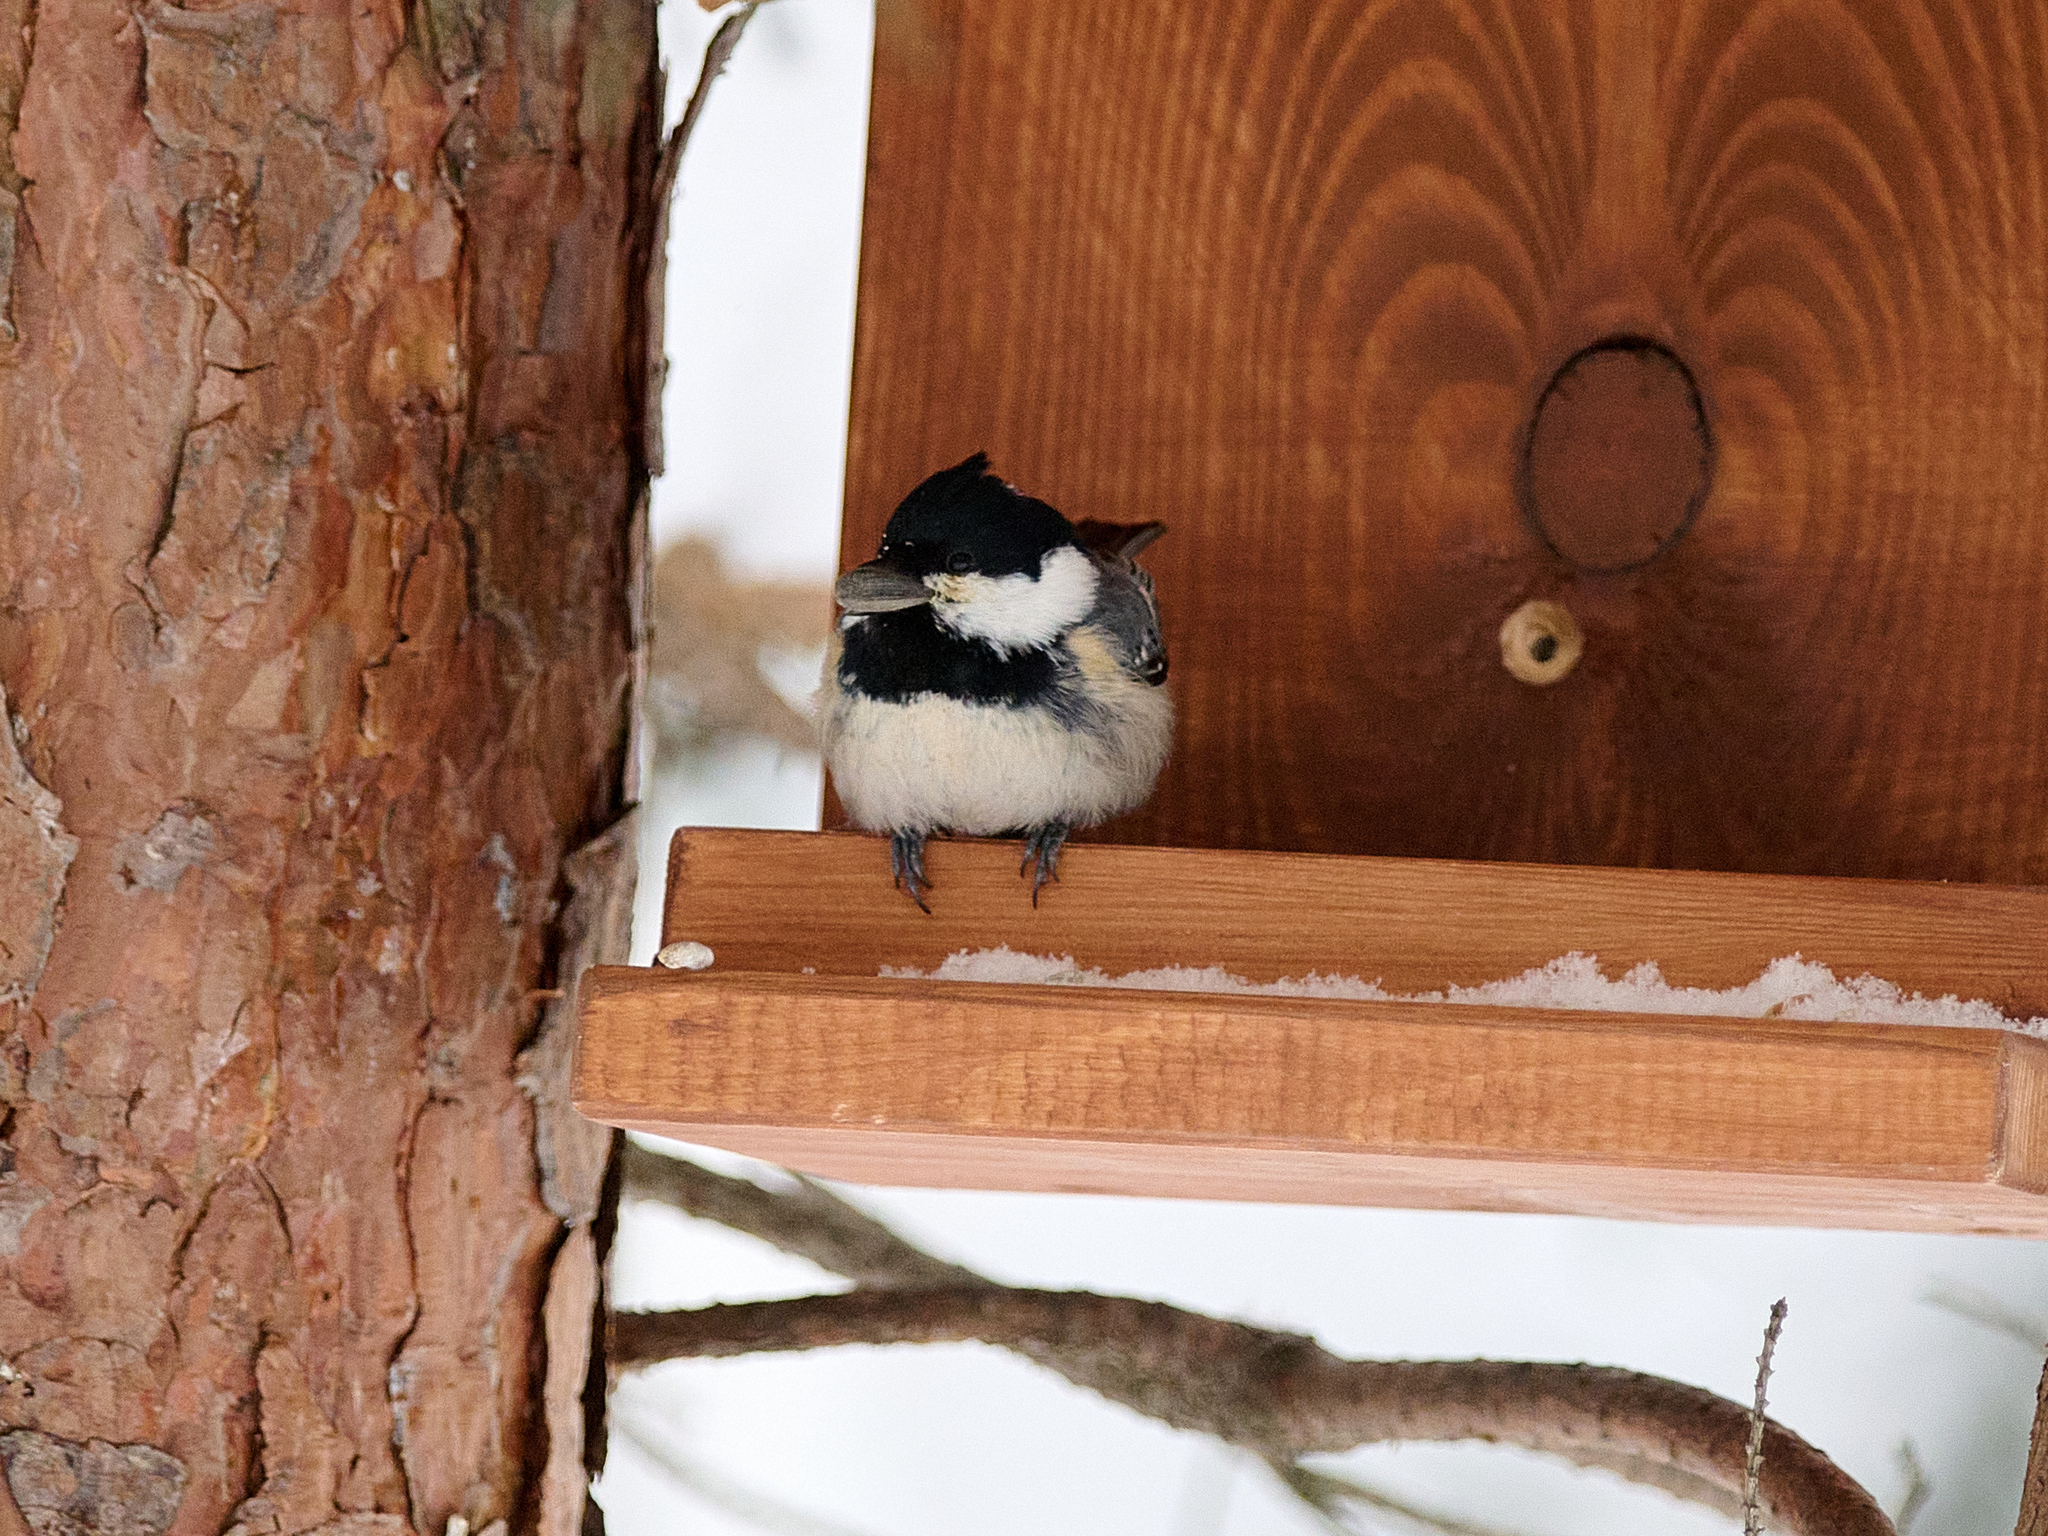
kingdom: Animalia
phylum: Chordata
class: Aves
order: Passeriformes
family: Paridae
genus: Periparus
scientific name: Periparus ater
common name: Coal tit
